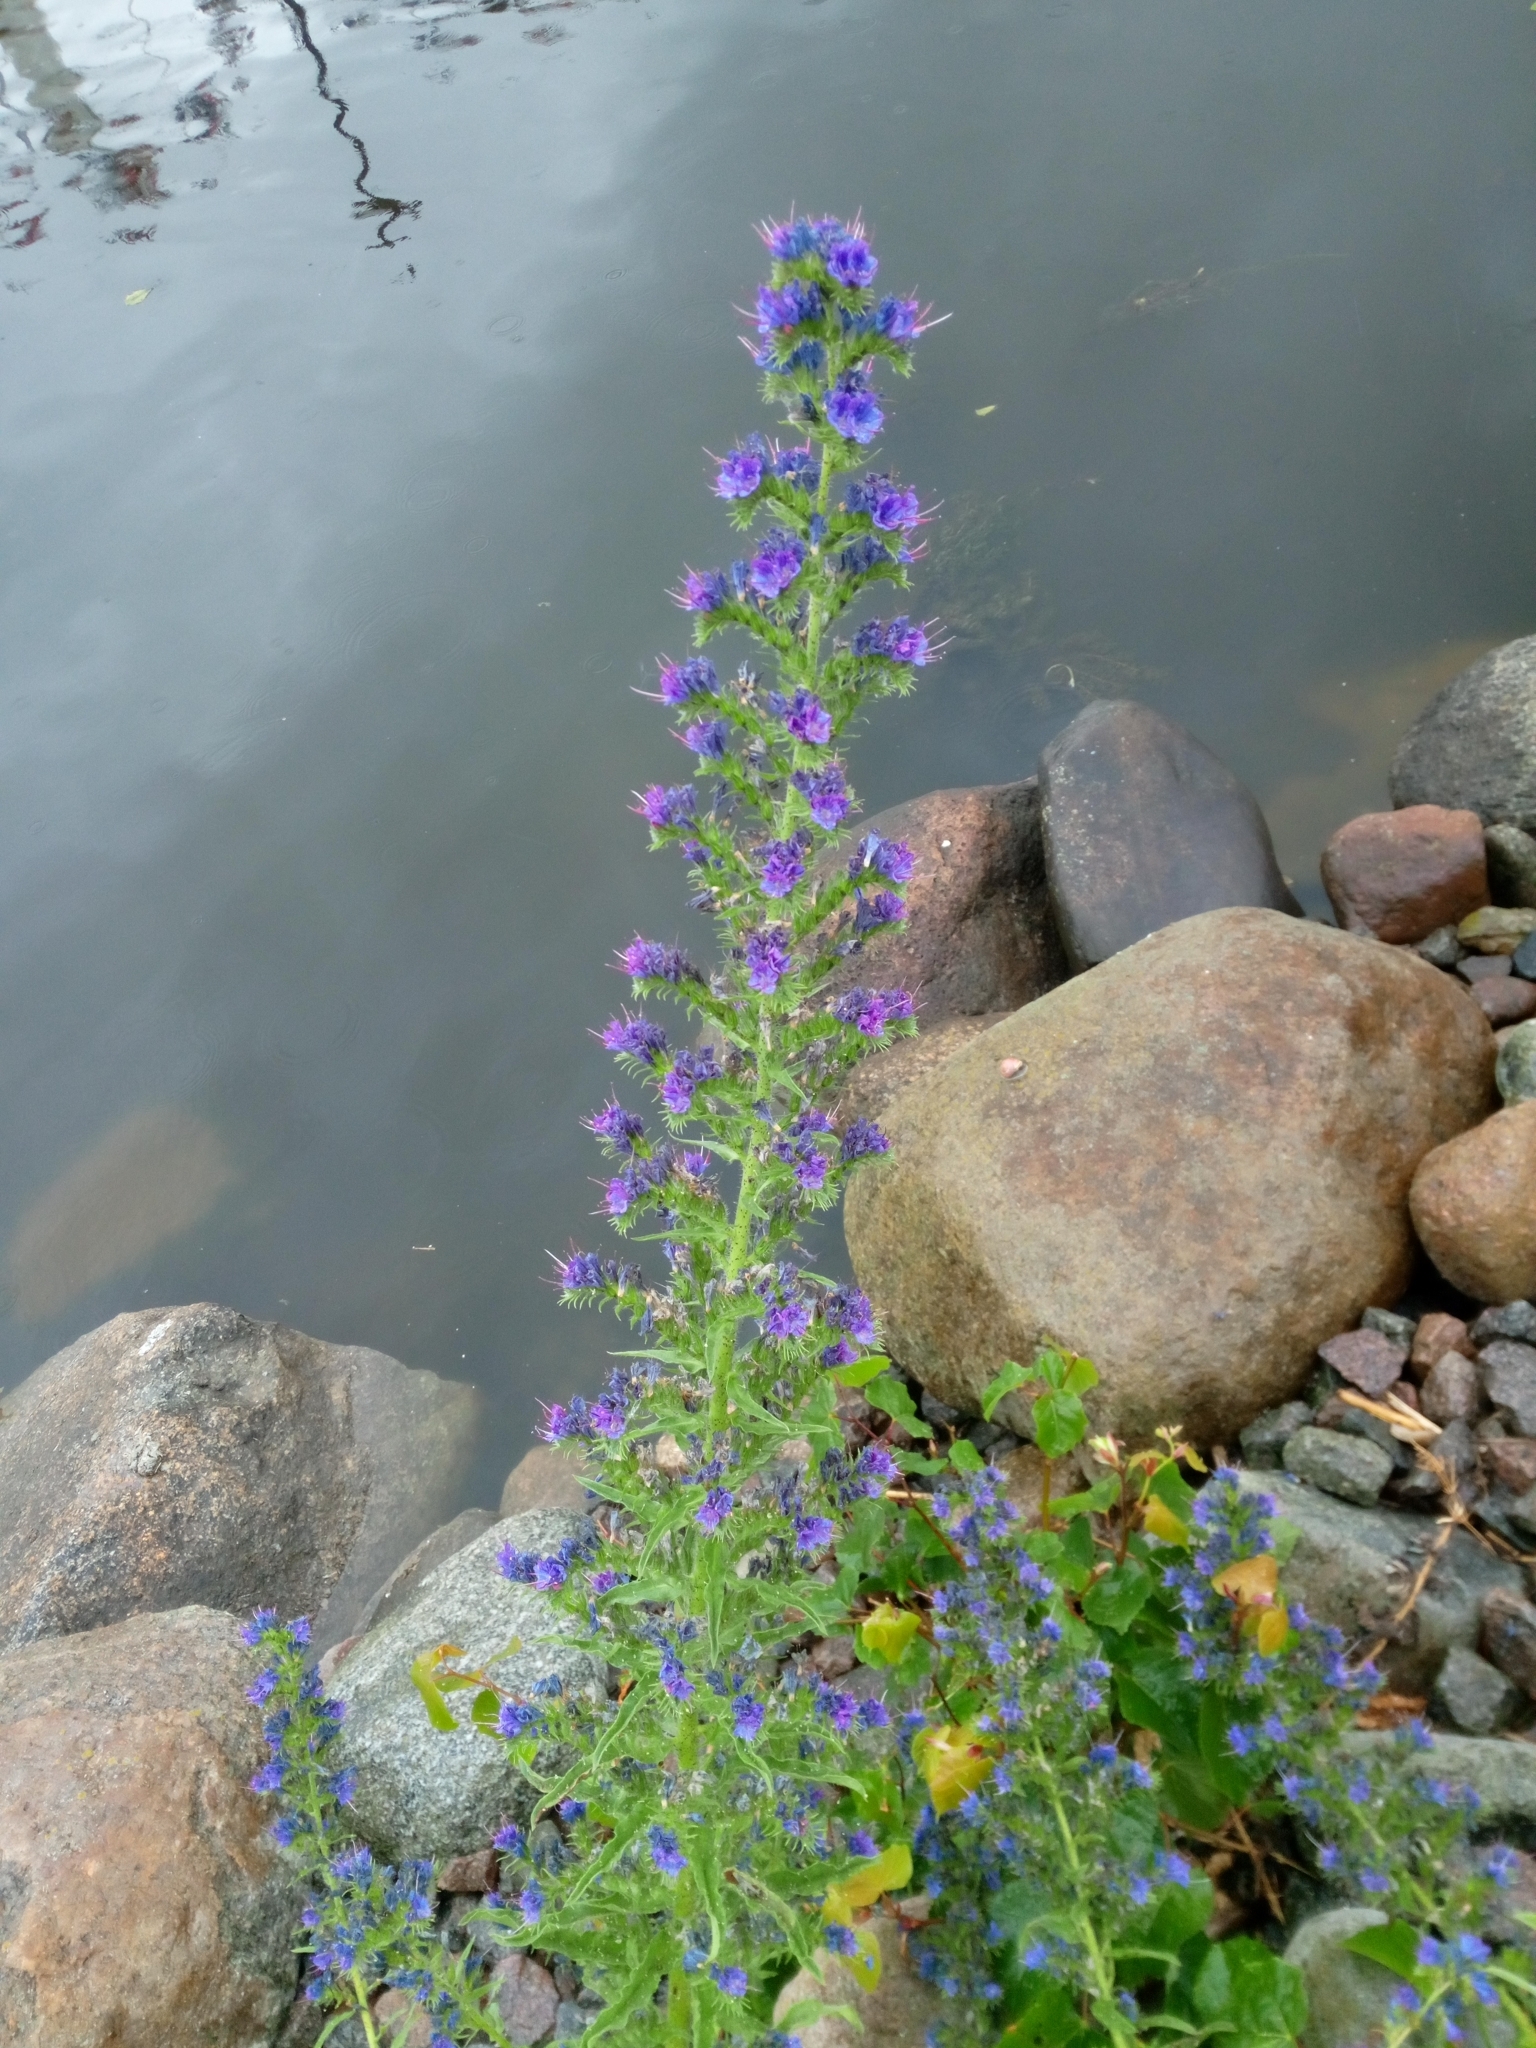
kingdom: Plantae
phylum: Tracheophyta
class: Magnoliopsida
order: Boraginales
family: Boraginaceae
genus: Echium
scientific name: Echium vulgare
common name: Common viper's bugloss
